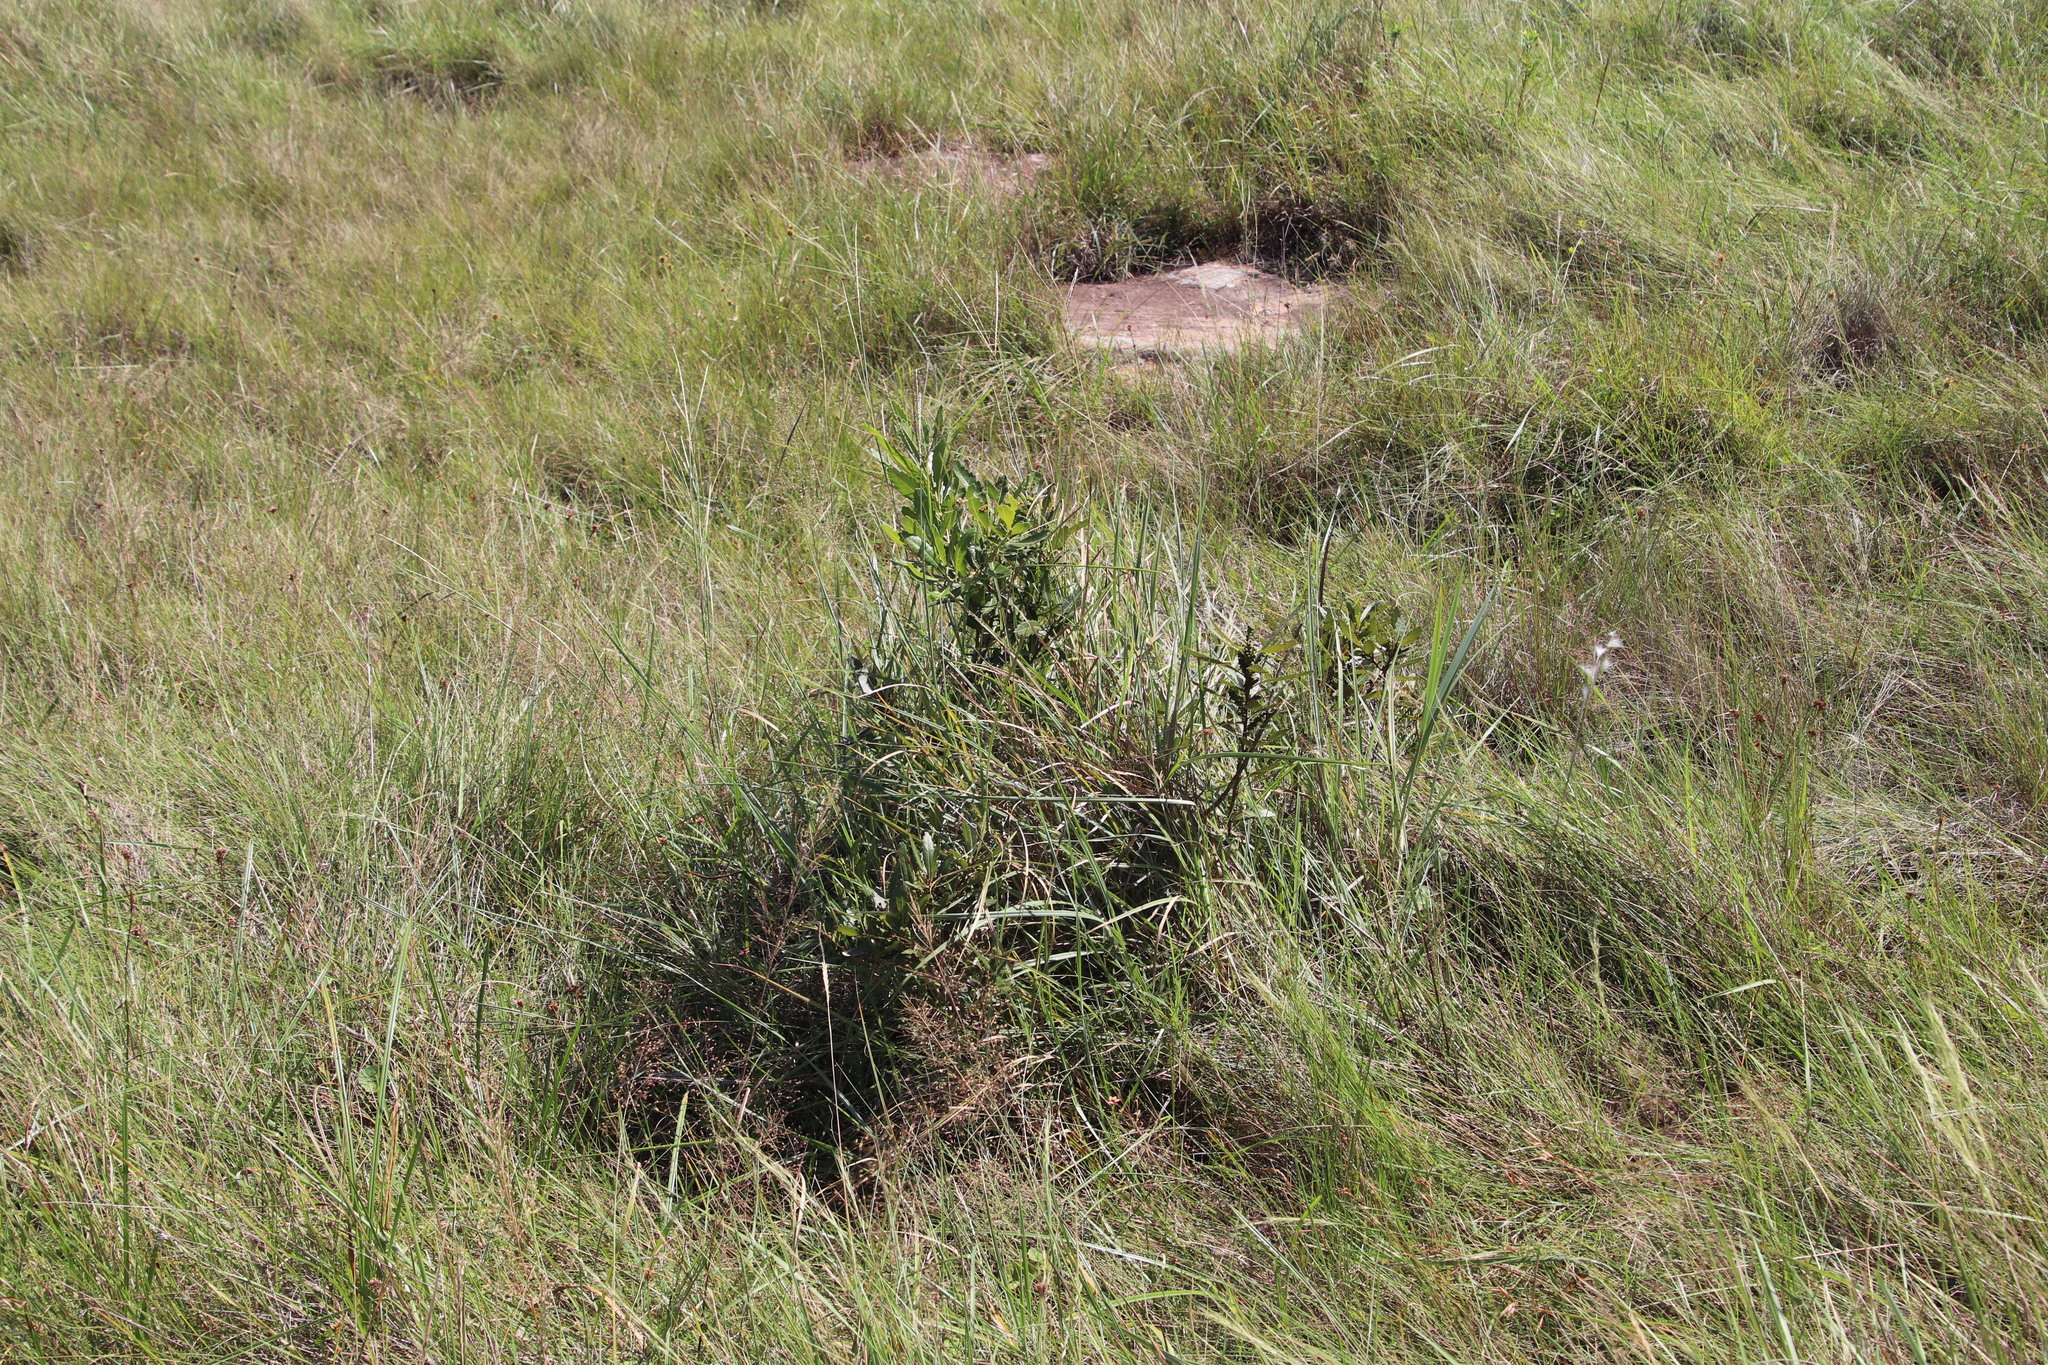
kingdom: Plantae
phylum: Tracheophyta
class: Magnoliopsida
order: Fagales
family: Myricaceae
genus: Morella
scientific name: Morella serrata
